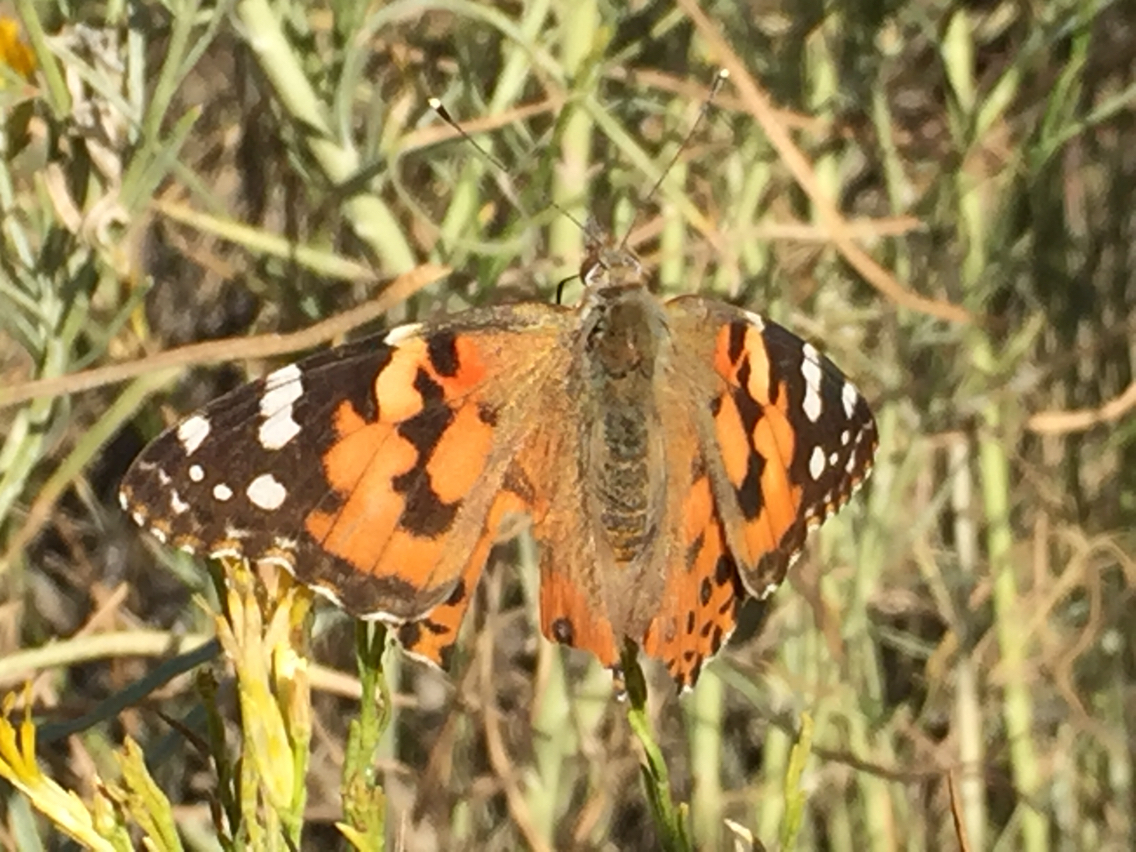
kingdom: Animalia
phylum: Arthropoda
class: Insecta
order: Lepidoptera
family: Nymphalidae
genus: Vanessa
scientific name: Vanessa cardui
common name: Painted lady
